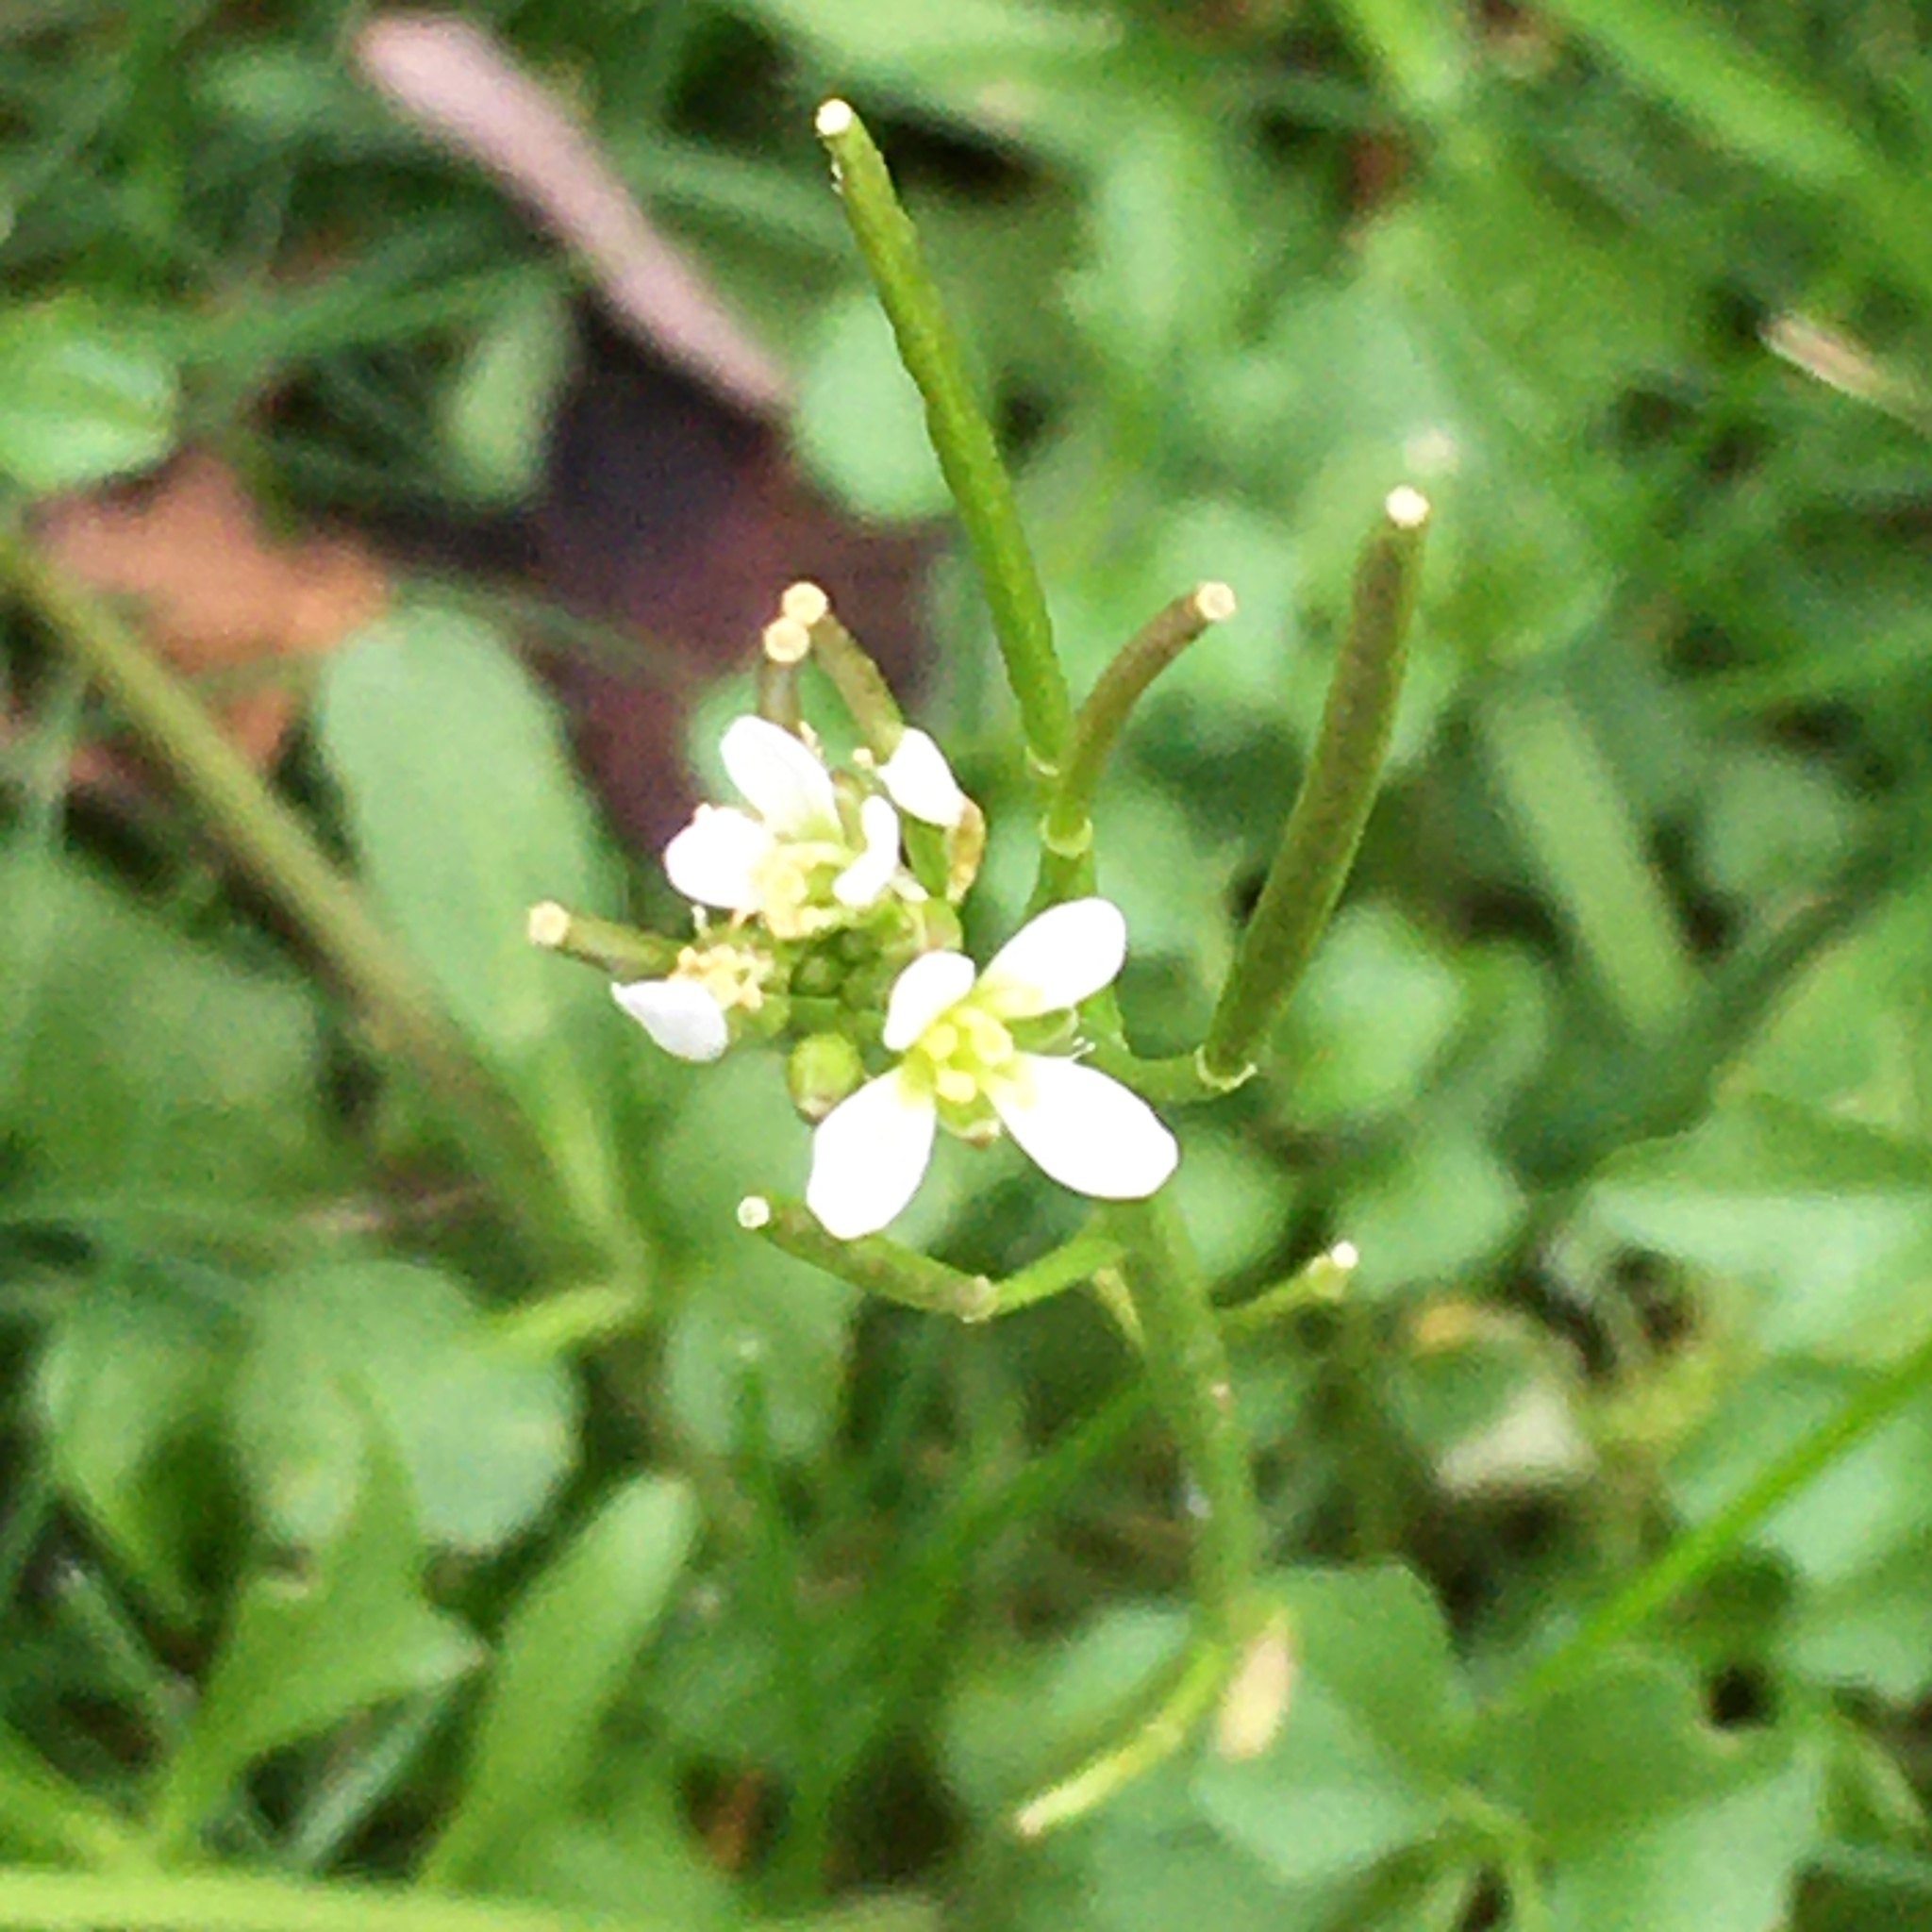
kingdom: Plantae
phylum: Tracheophyta
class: Magnoliopsida
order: Brassicales
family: Brassicaceae
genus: Cardamine
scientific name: Cardamine hirsuta
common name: Hairy bittercress
